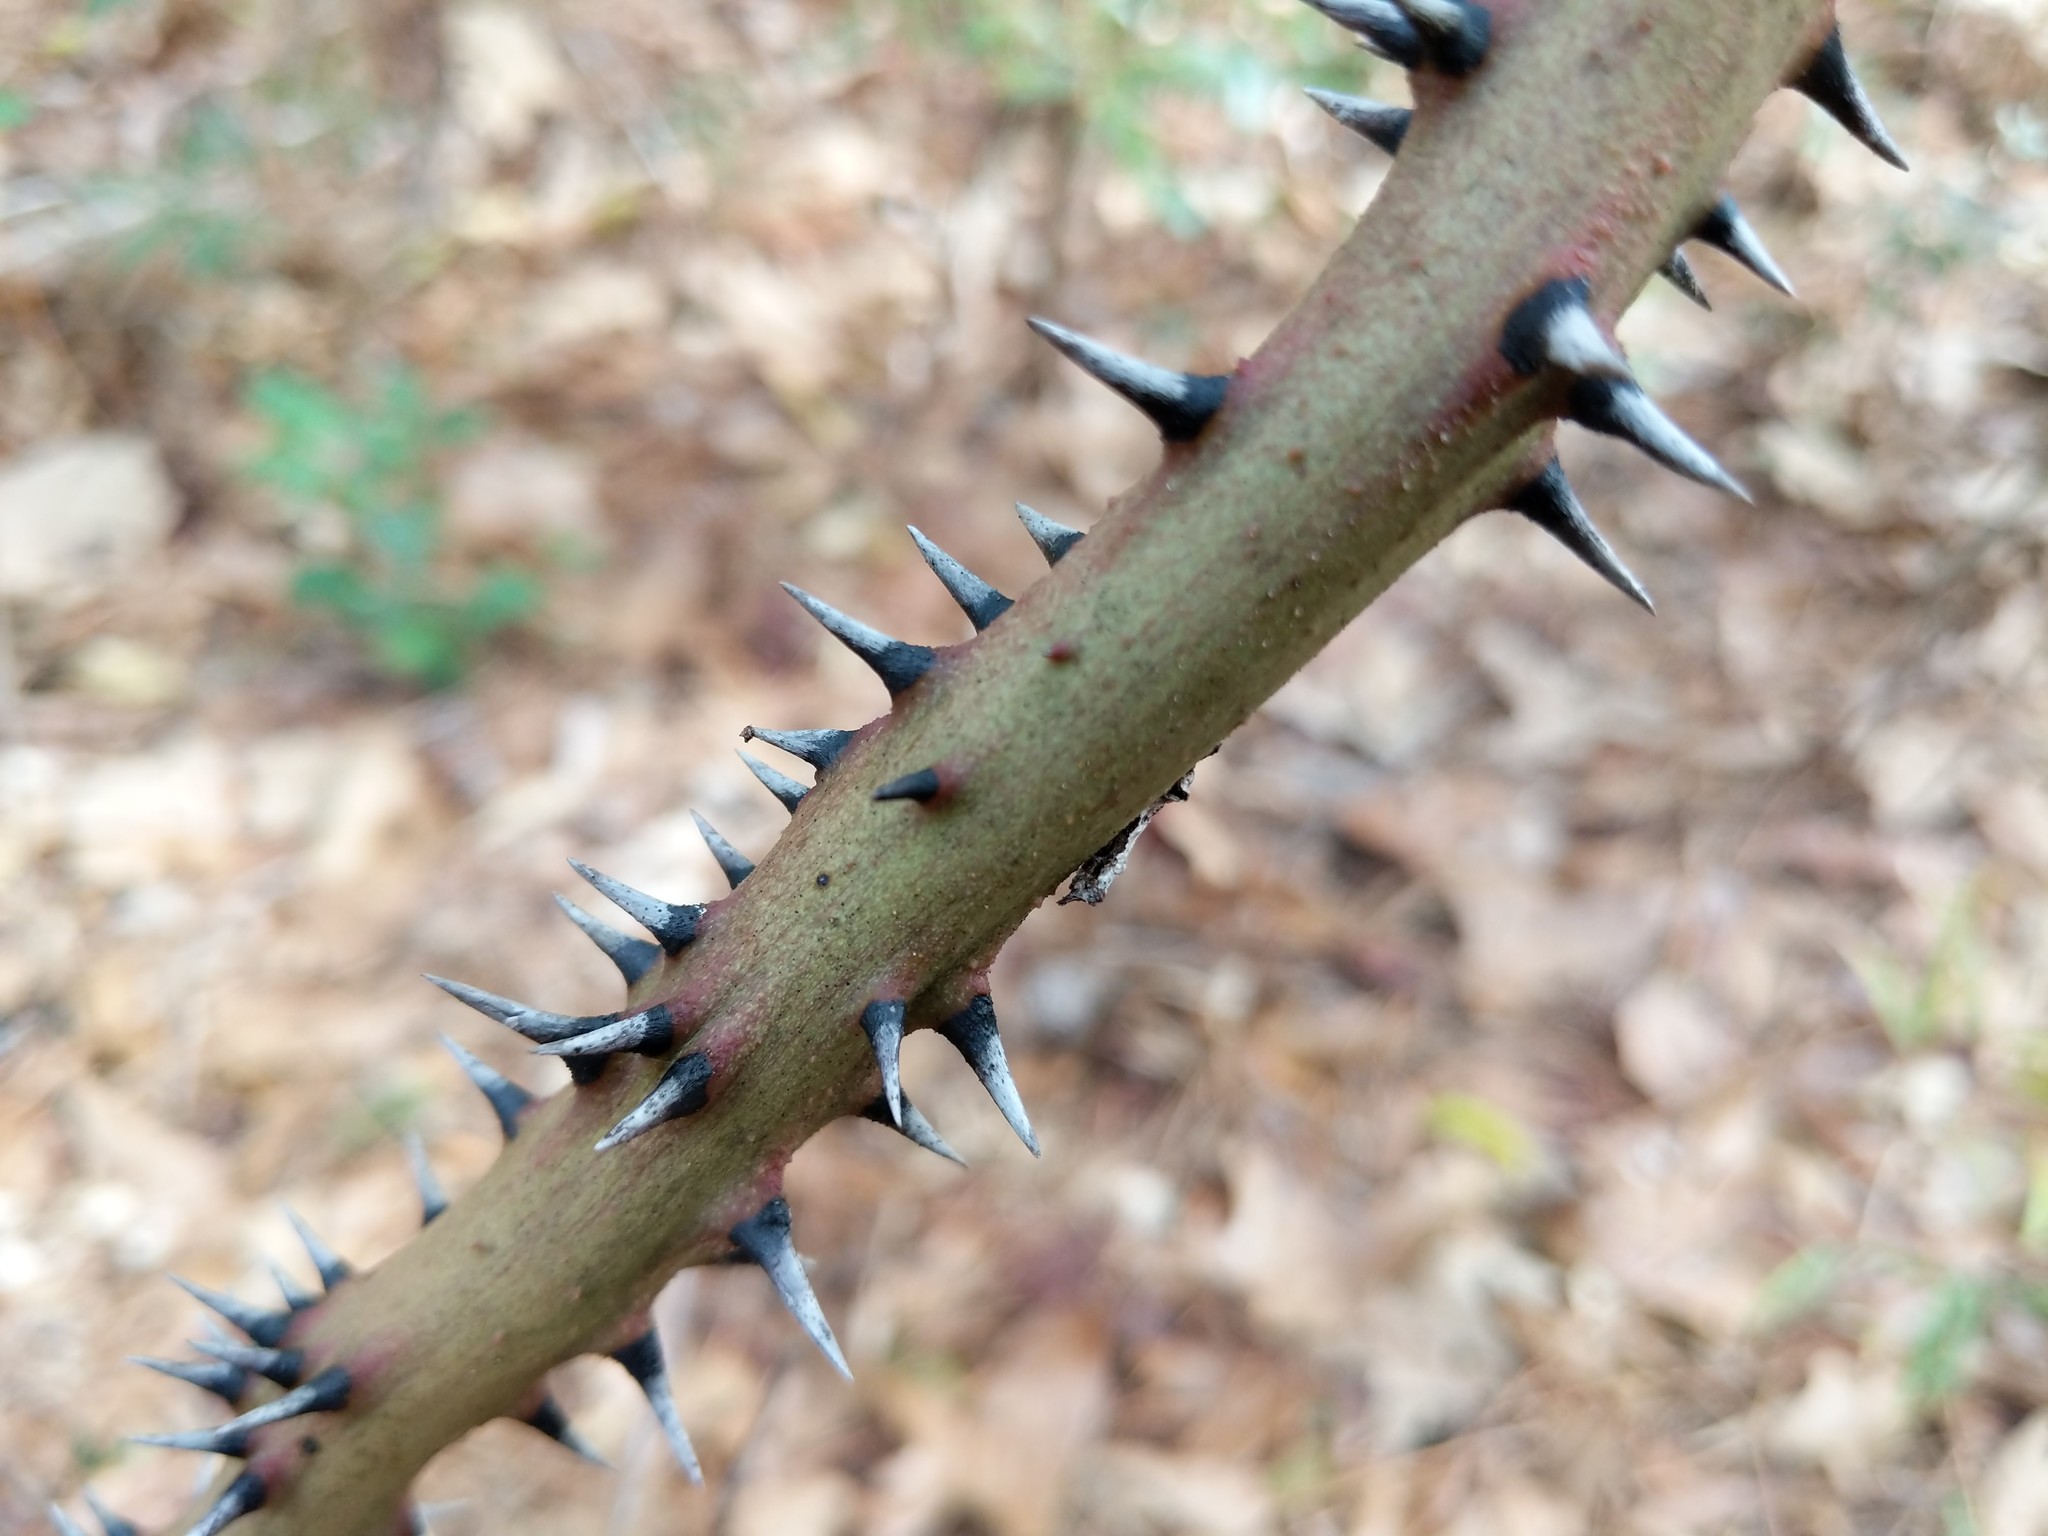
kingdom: Plantae
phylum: Tracheophyta
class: Liliopsida
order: Liliales
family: Smilacaceae
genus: Smilax
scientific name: Smilax
